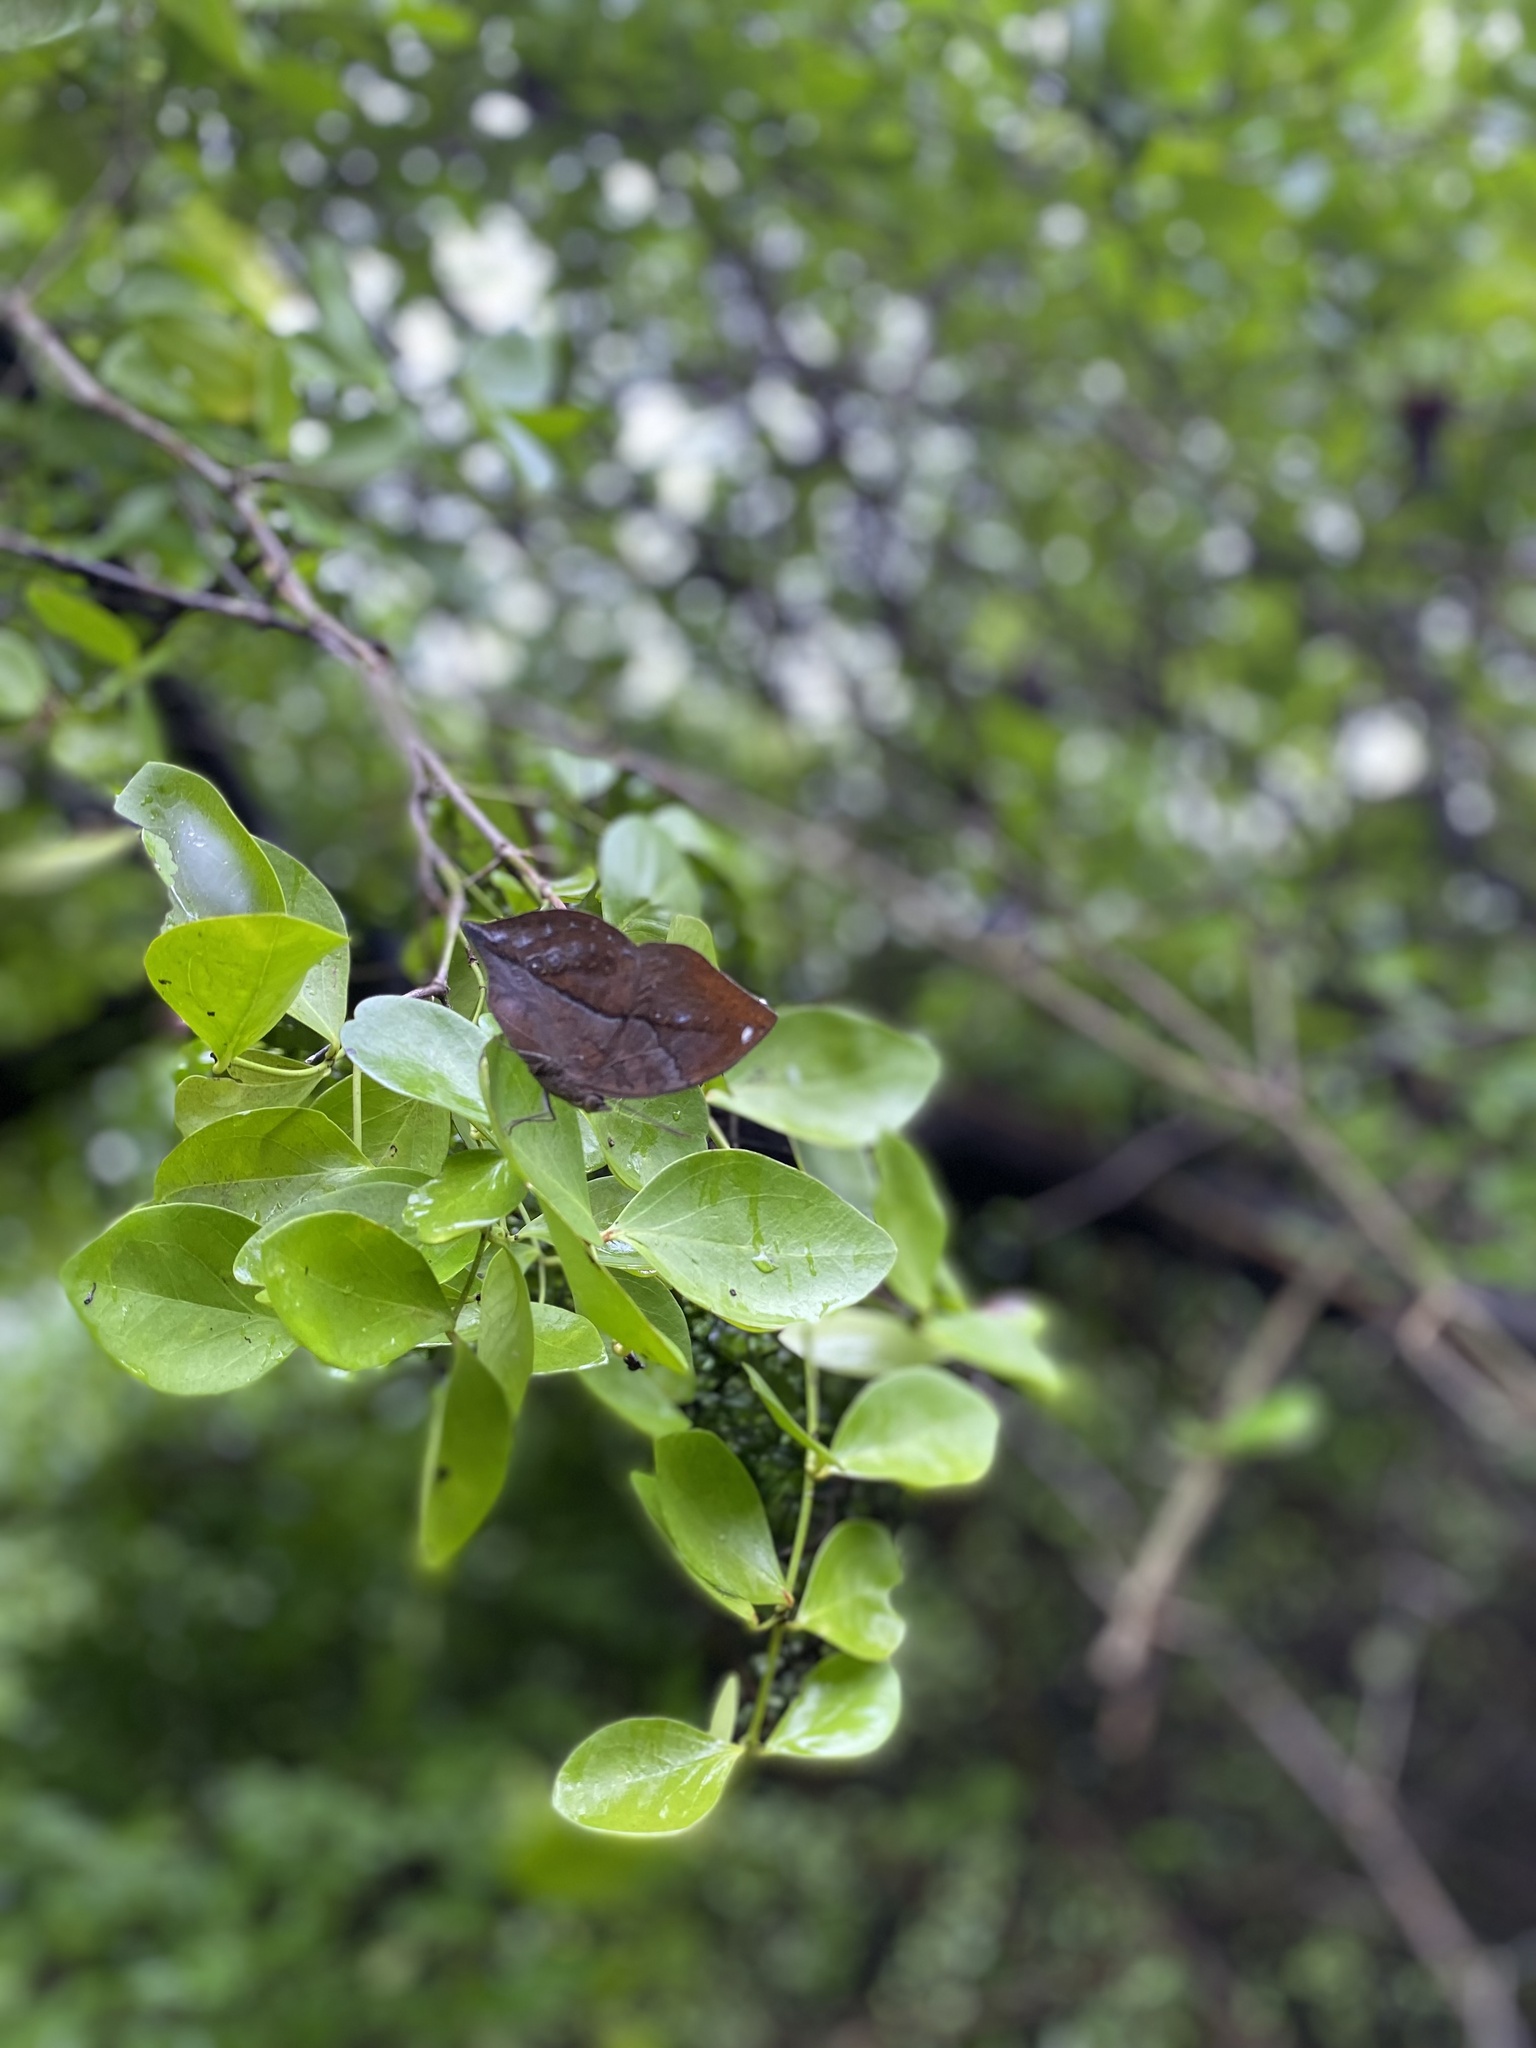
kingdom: Animalia
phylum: Arthropoda
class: Insecta
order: Lepidoptera
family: Nymphalidae
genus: Kallima
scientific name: Kallima horsfieldii
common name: Sahyadri blue oakleaf
